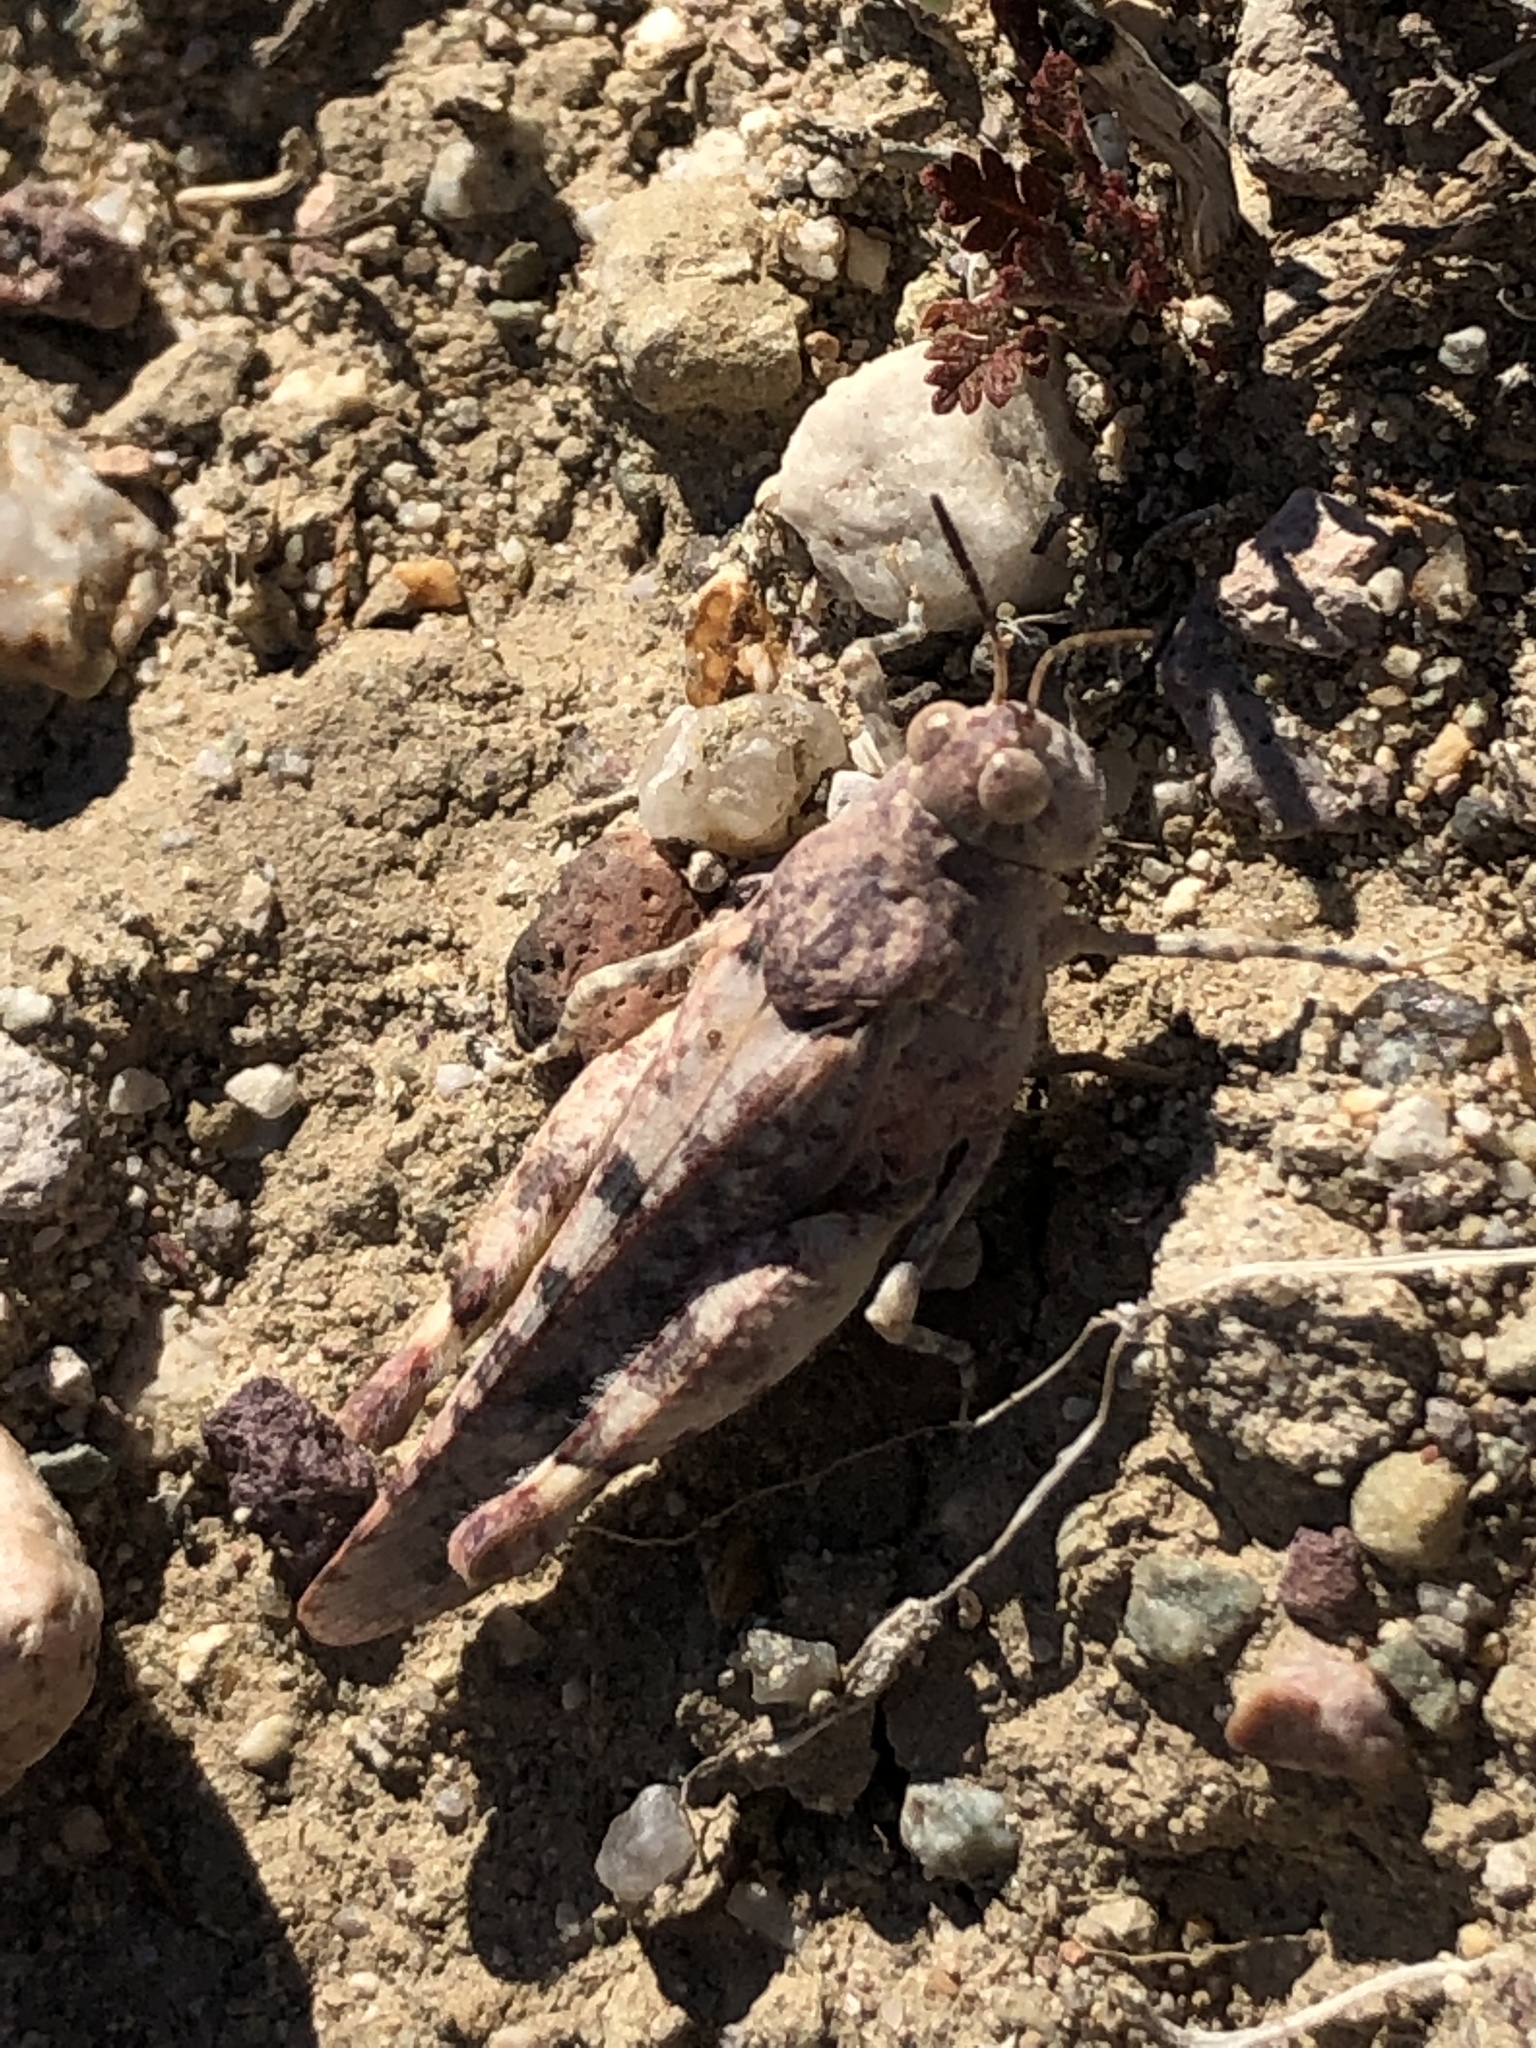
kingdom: Animalia
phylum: Arthropoda
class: Insecta
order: Orthoptera
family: Acrididae
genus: Cibolacris
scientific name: Cibolacris parviceps
